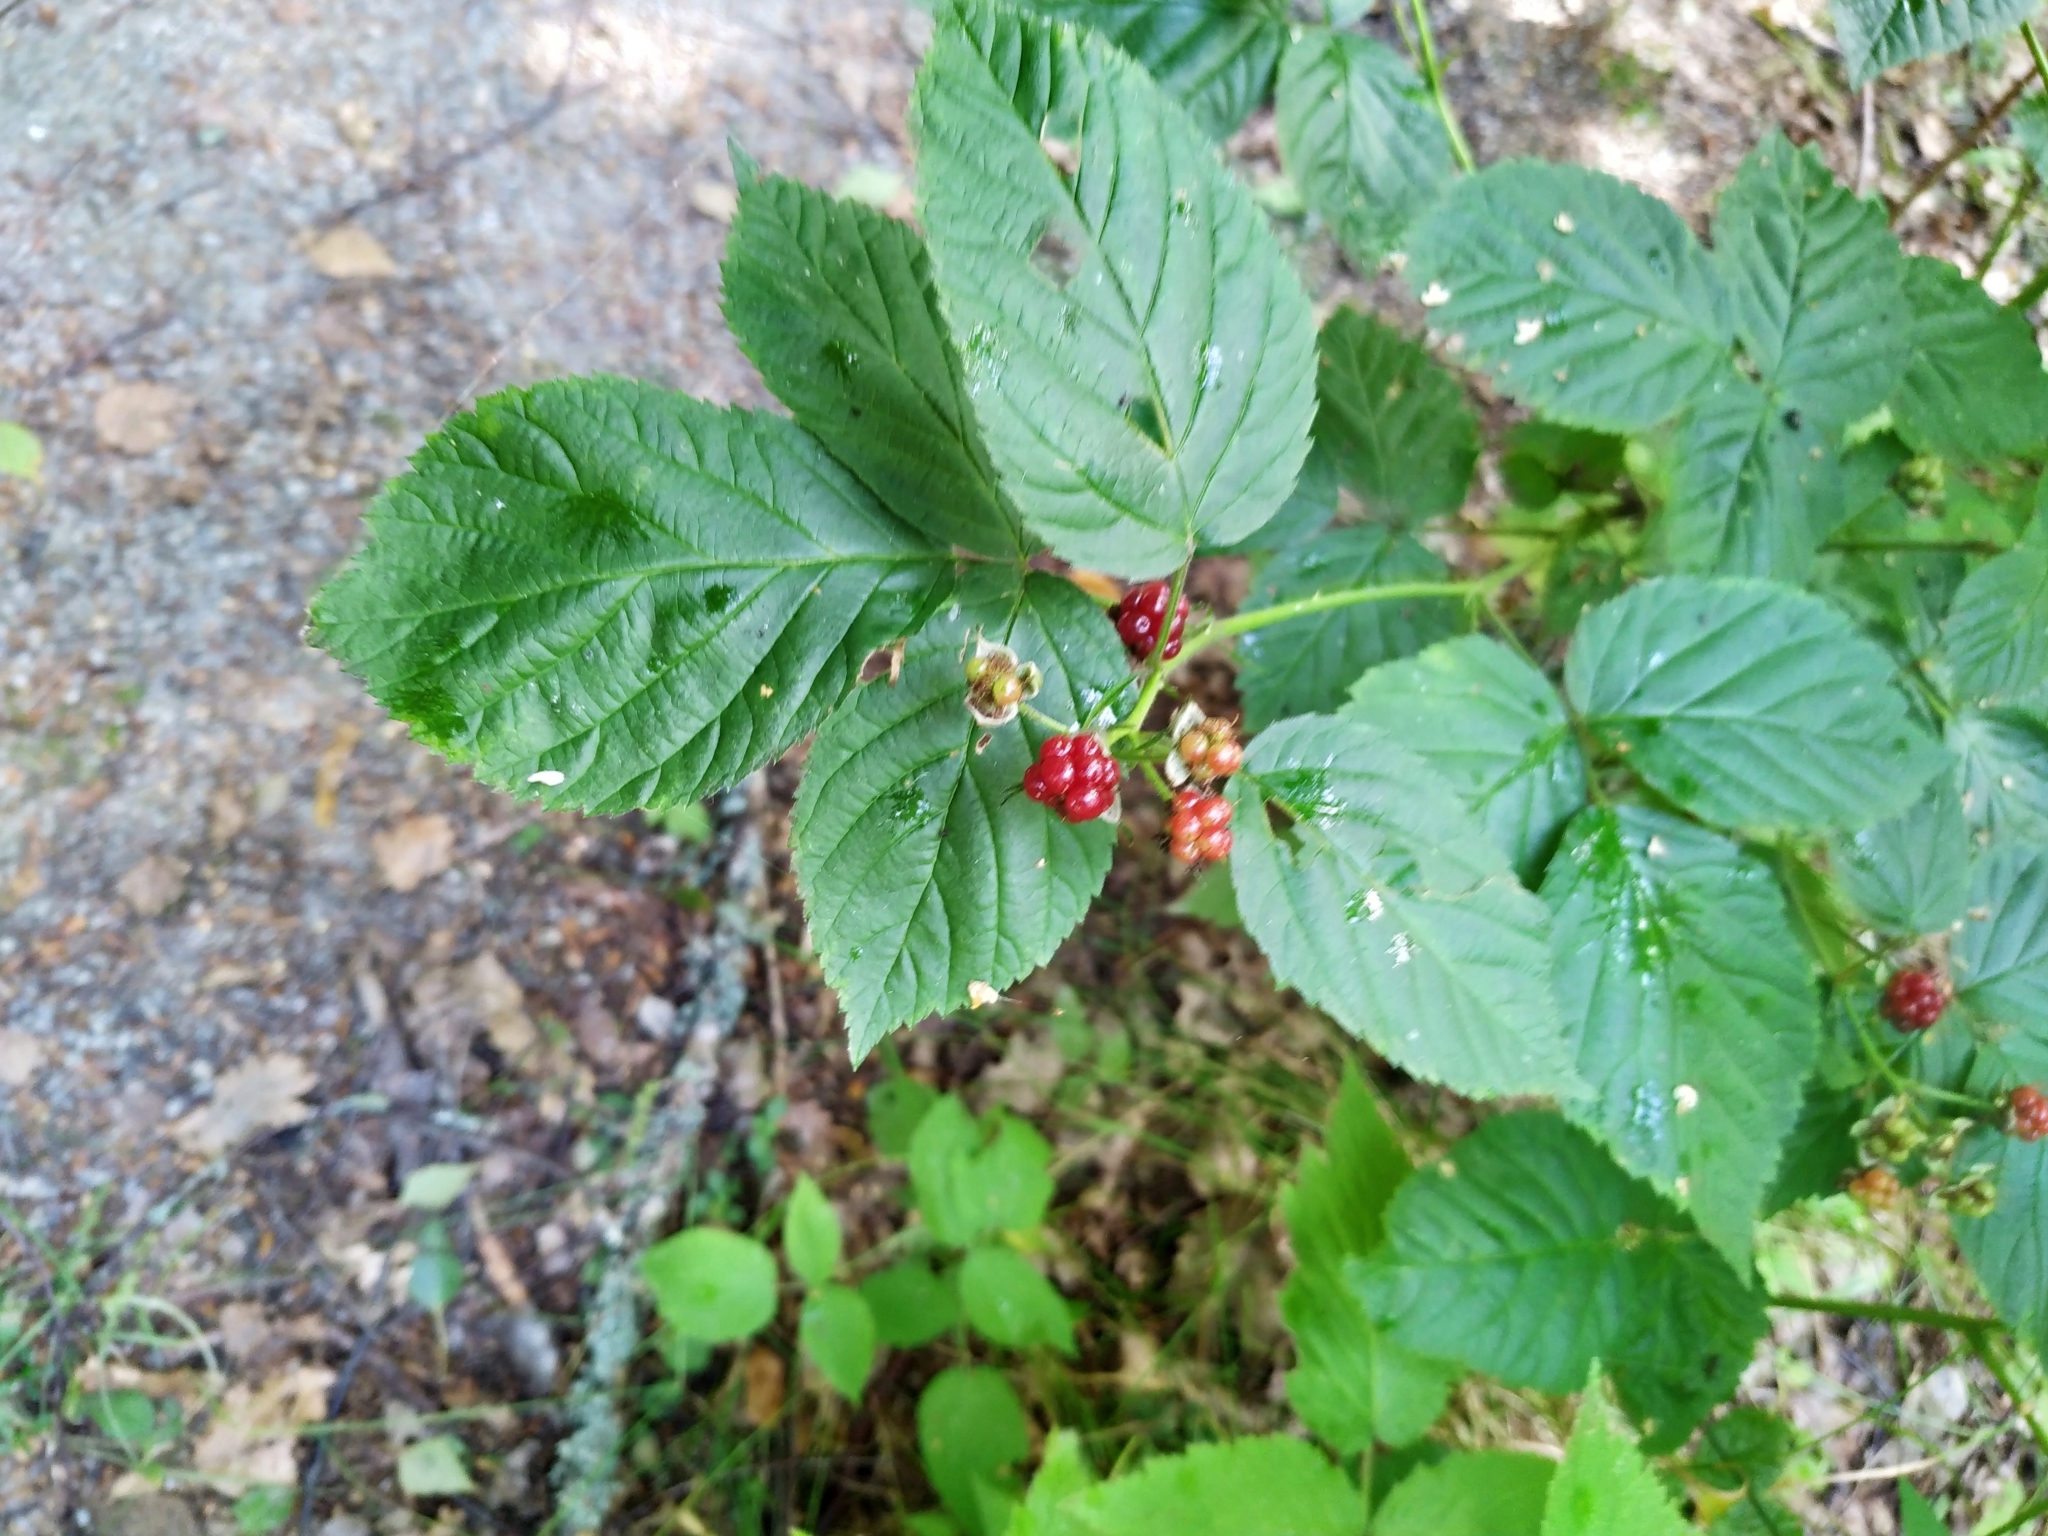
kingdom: Plantae
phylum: Tracheophyta
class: Magnoliopsida
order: Rosales
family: Rosaceae
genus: Rubus
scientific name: Rubus polonicus
